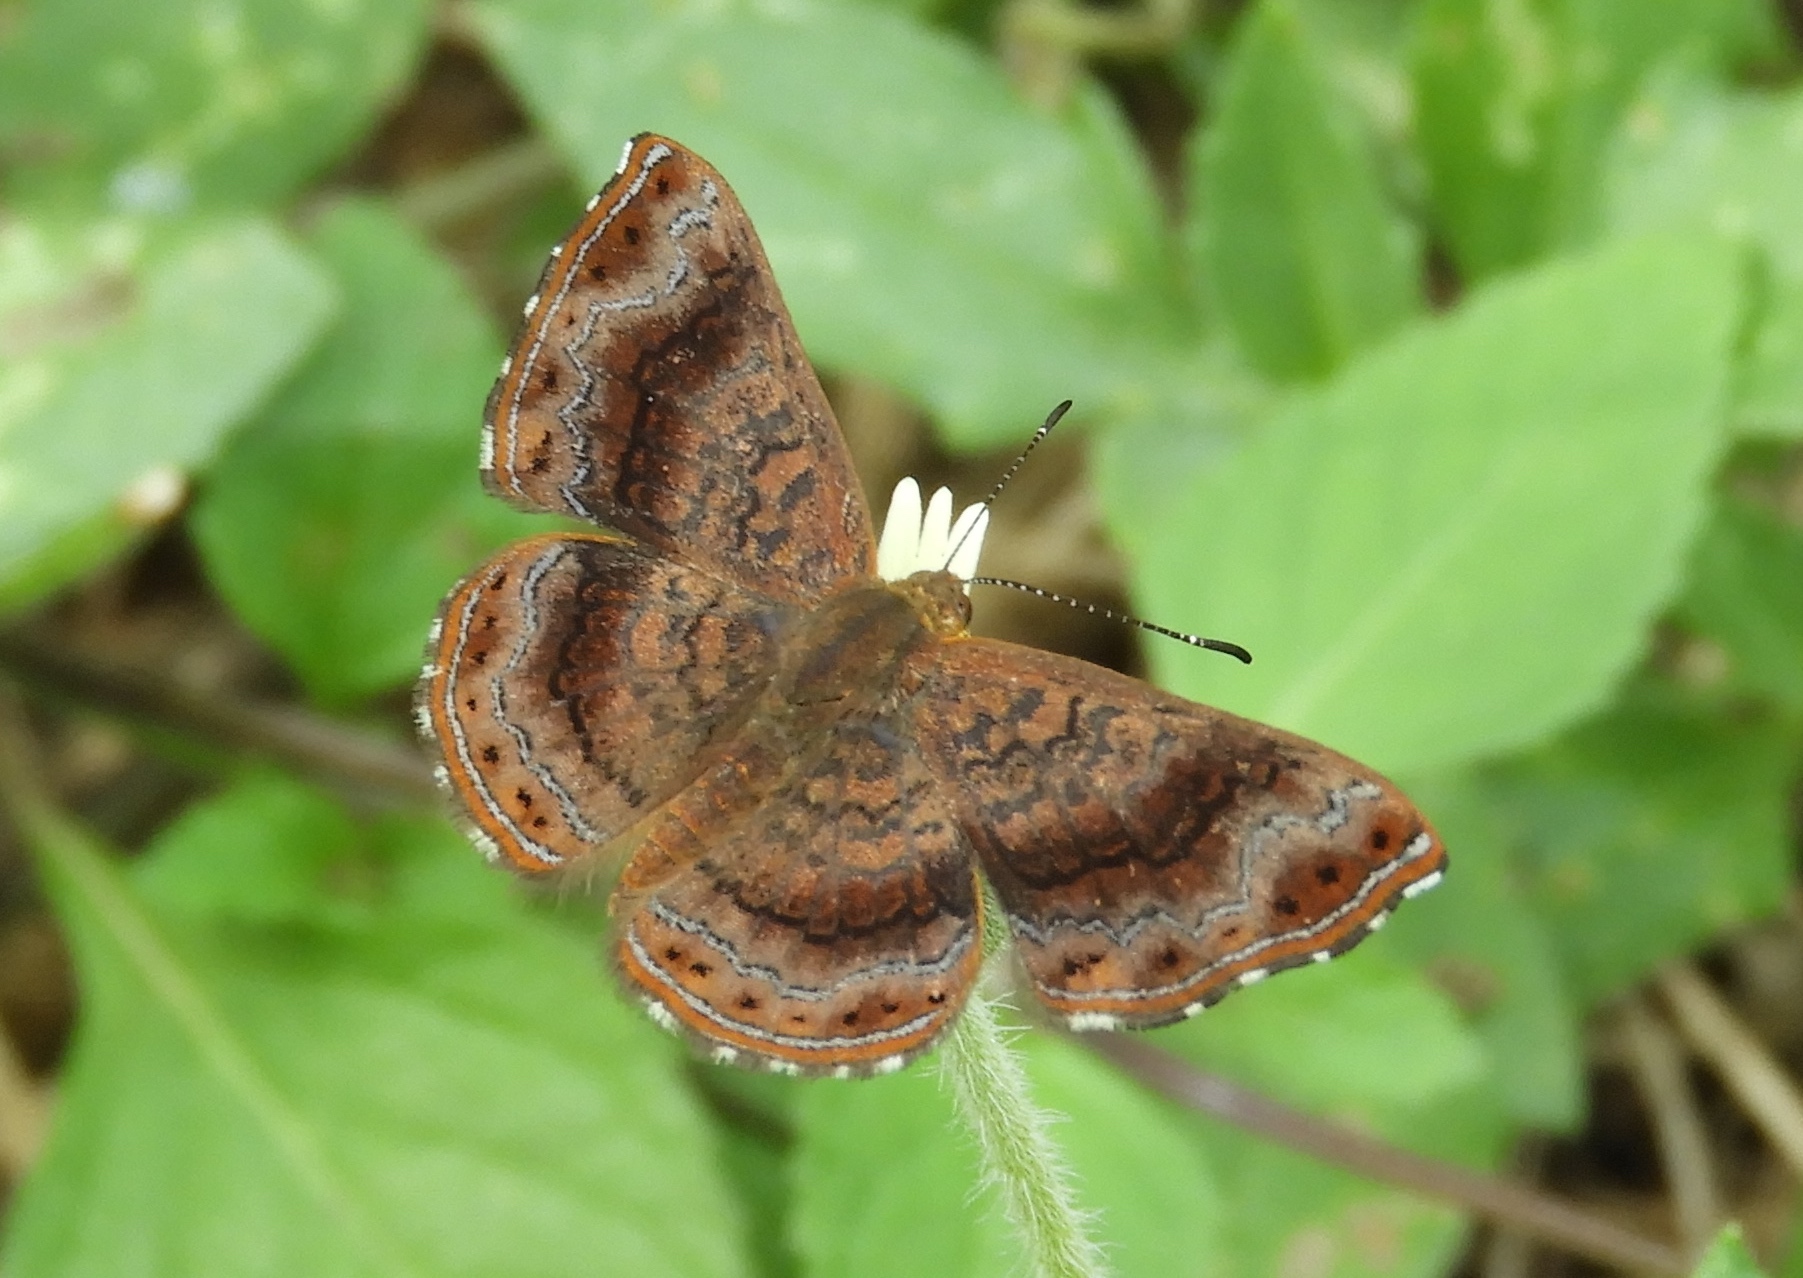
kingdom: Animalia
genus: Calephelis
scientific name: Calephelis
